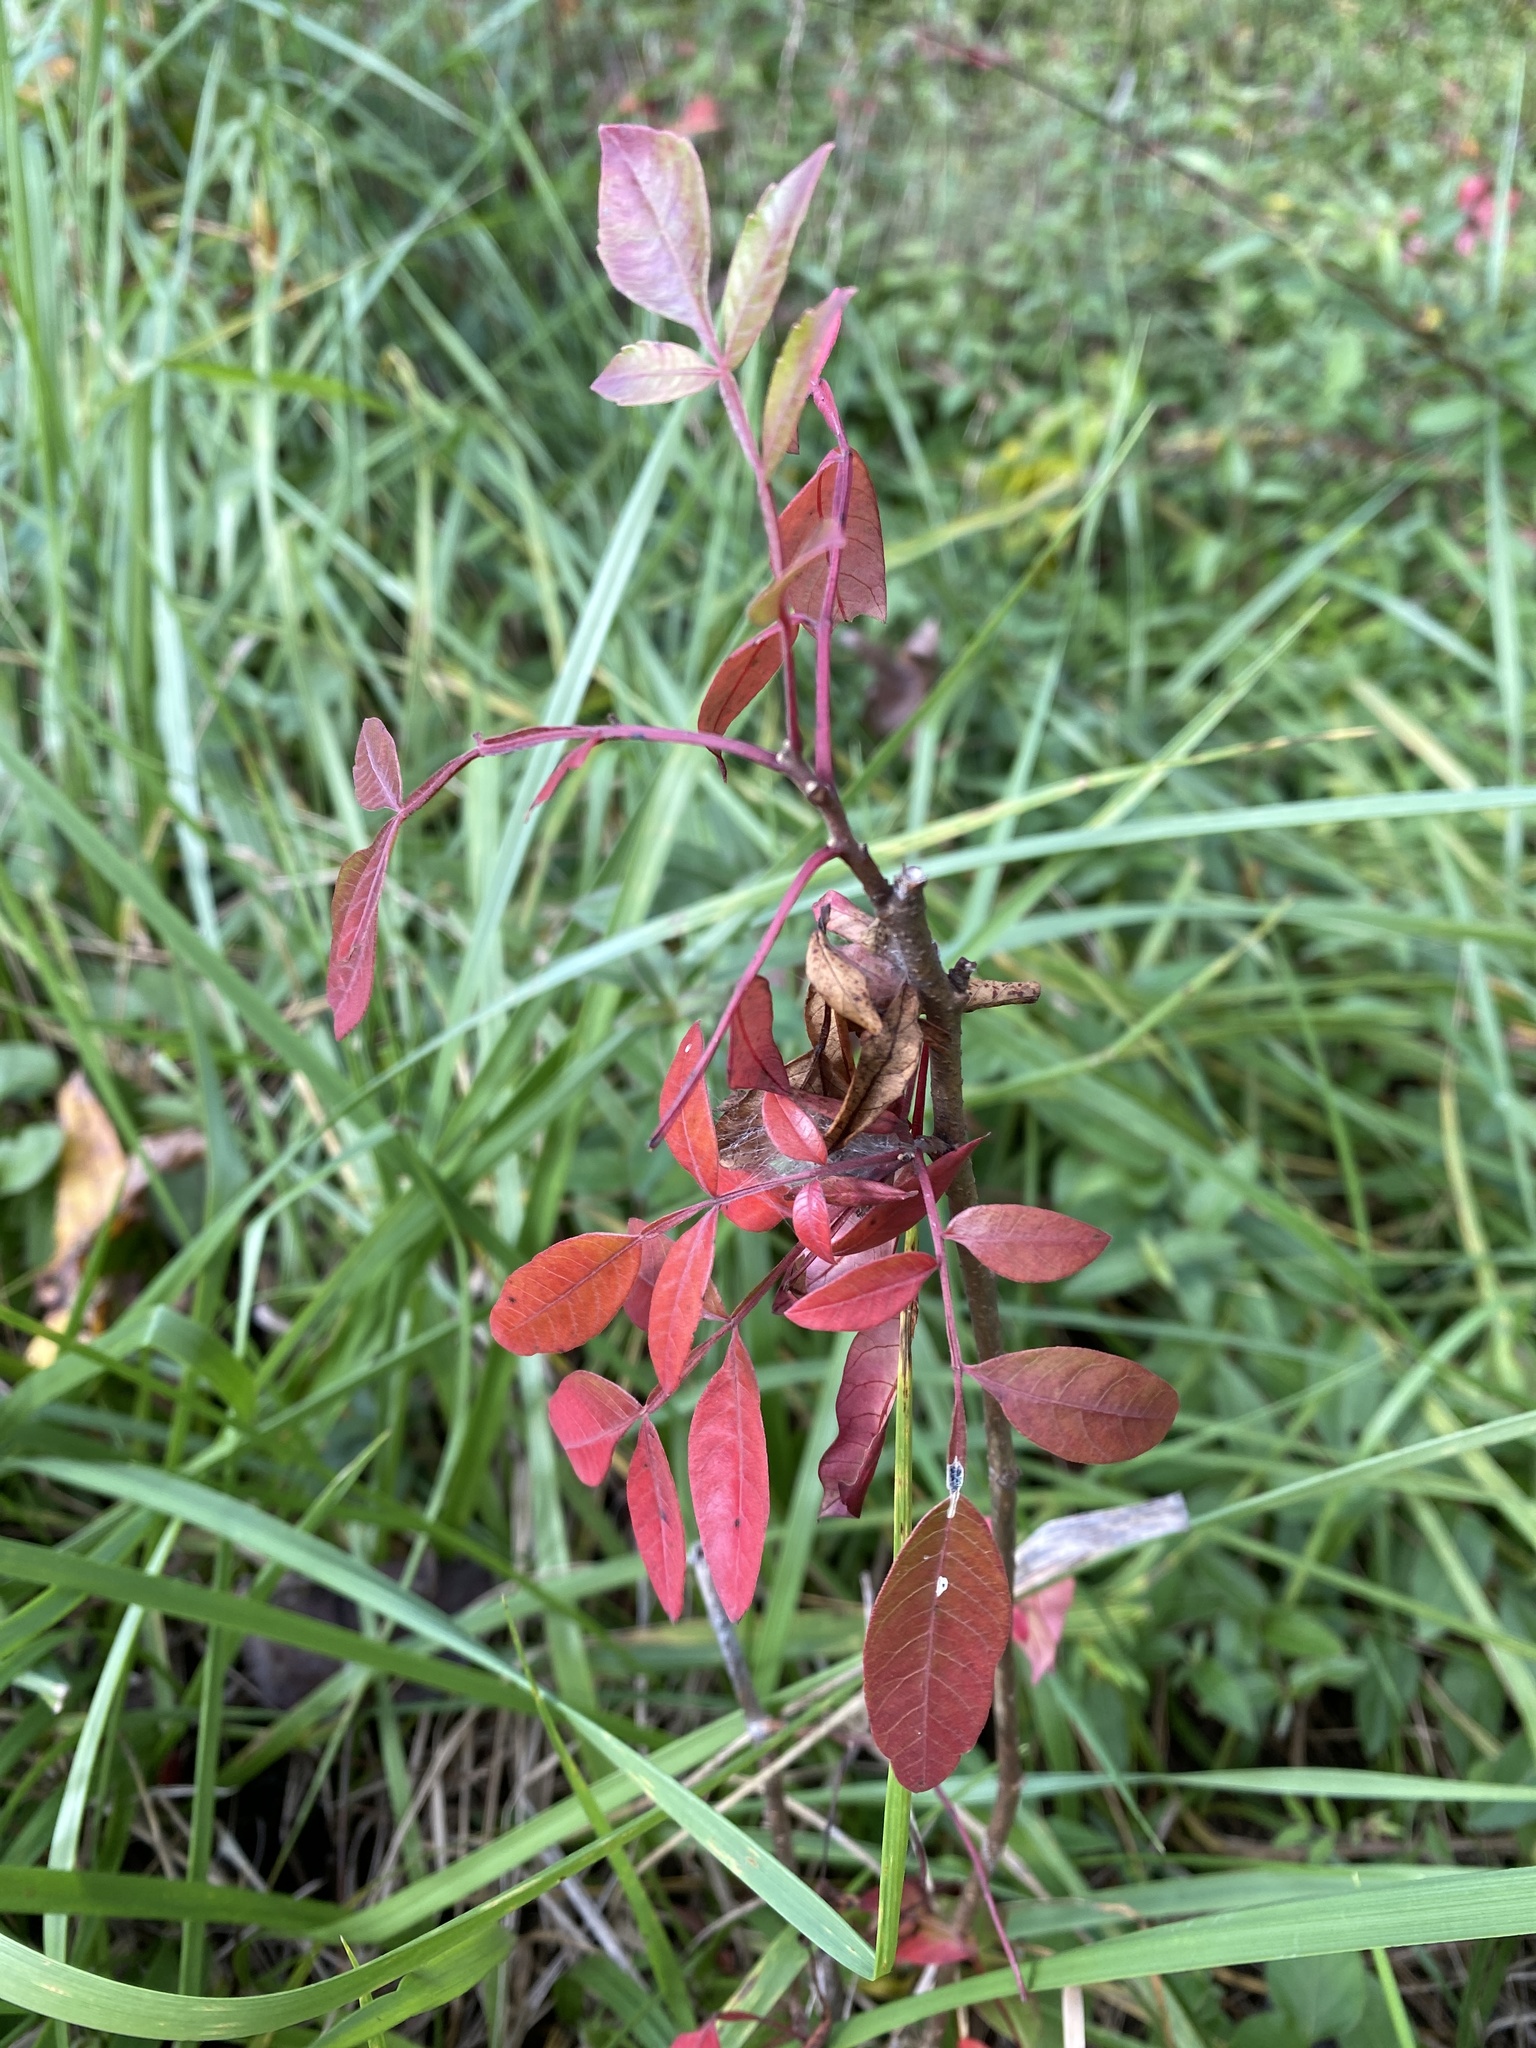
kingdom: Plantae
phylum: Tracheophyta
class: Magnoliopsida
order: Sapindales
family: Anacardiaceae
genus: Rhus
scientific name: Rhus copallina
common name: Shining sumac
